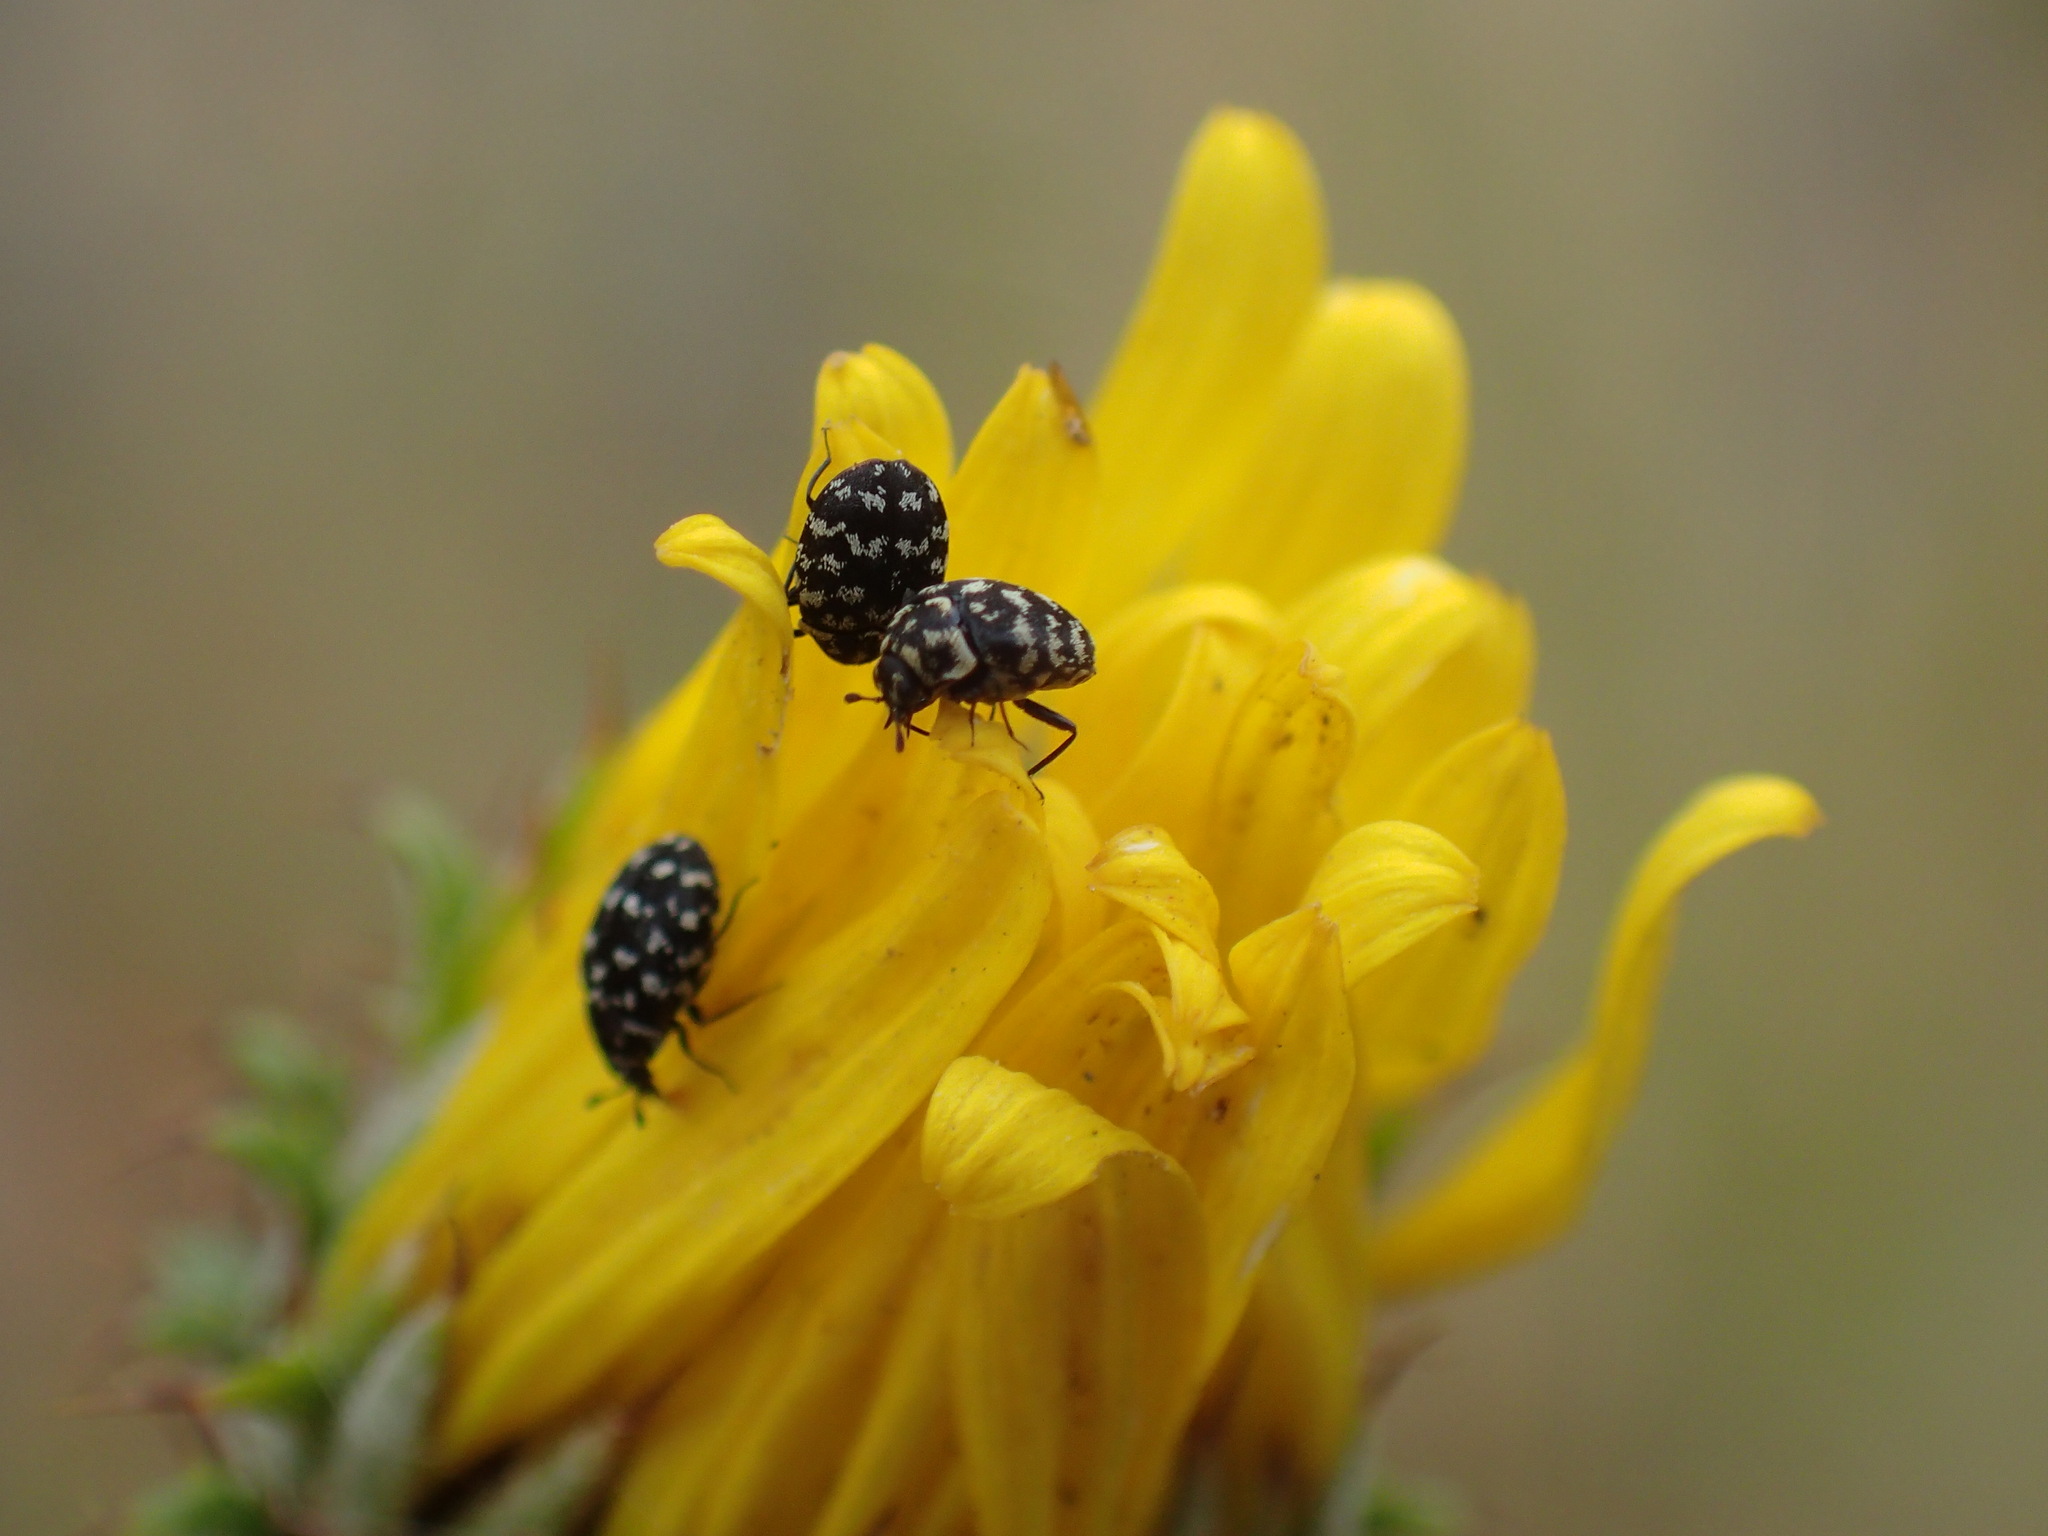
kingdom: Animalia
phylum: Arthropoda
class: Insecta
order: Coleoptera
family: Dermestidae
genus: Anthrenus
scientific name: Anthrenus
